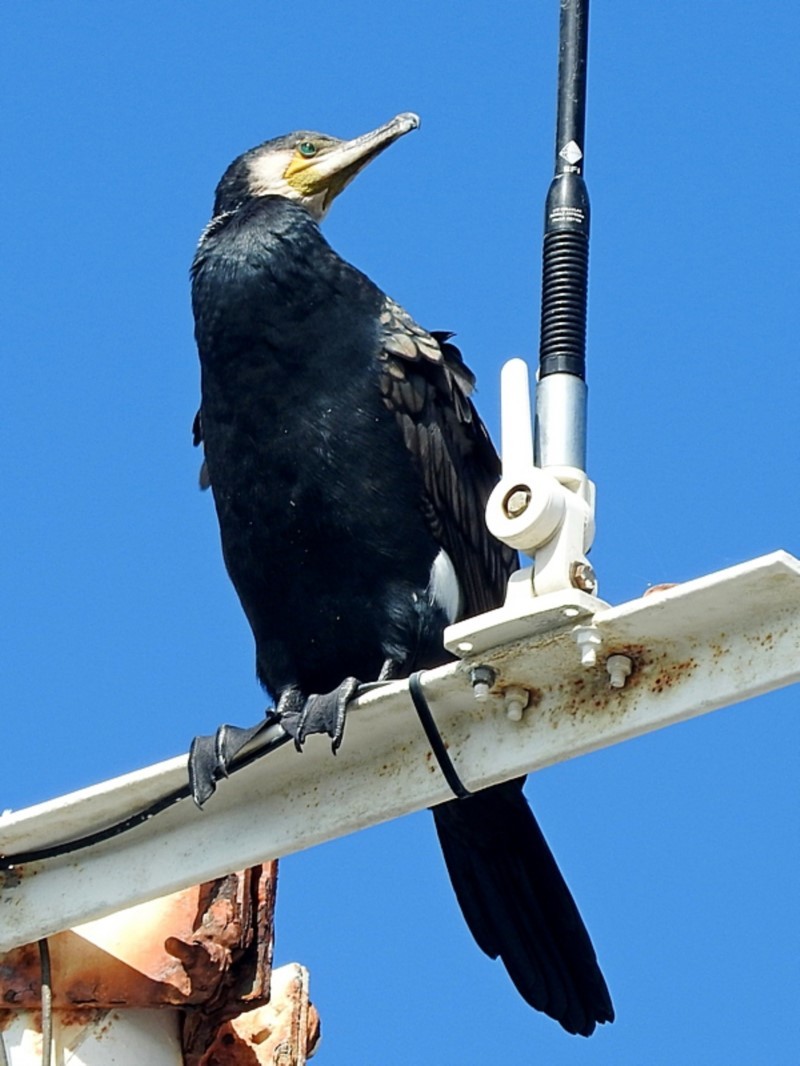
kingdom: Animalia
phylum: Chordata
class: Aves
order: Suliformes
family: Phalacrocoracidae
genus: Phalacrocorax
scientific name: Phalacrocorax carbo
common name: Great cormorant
